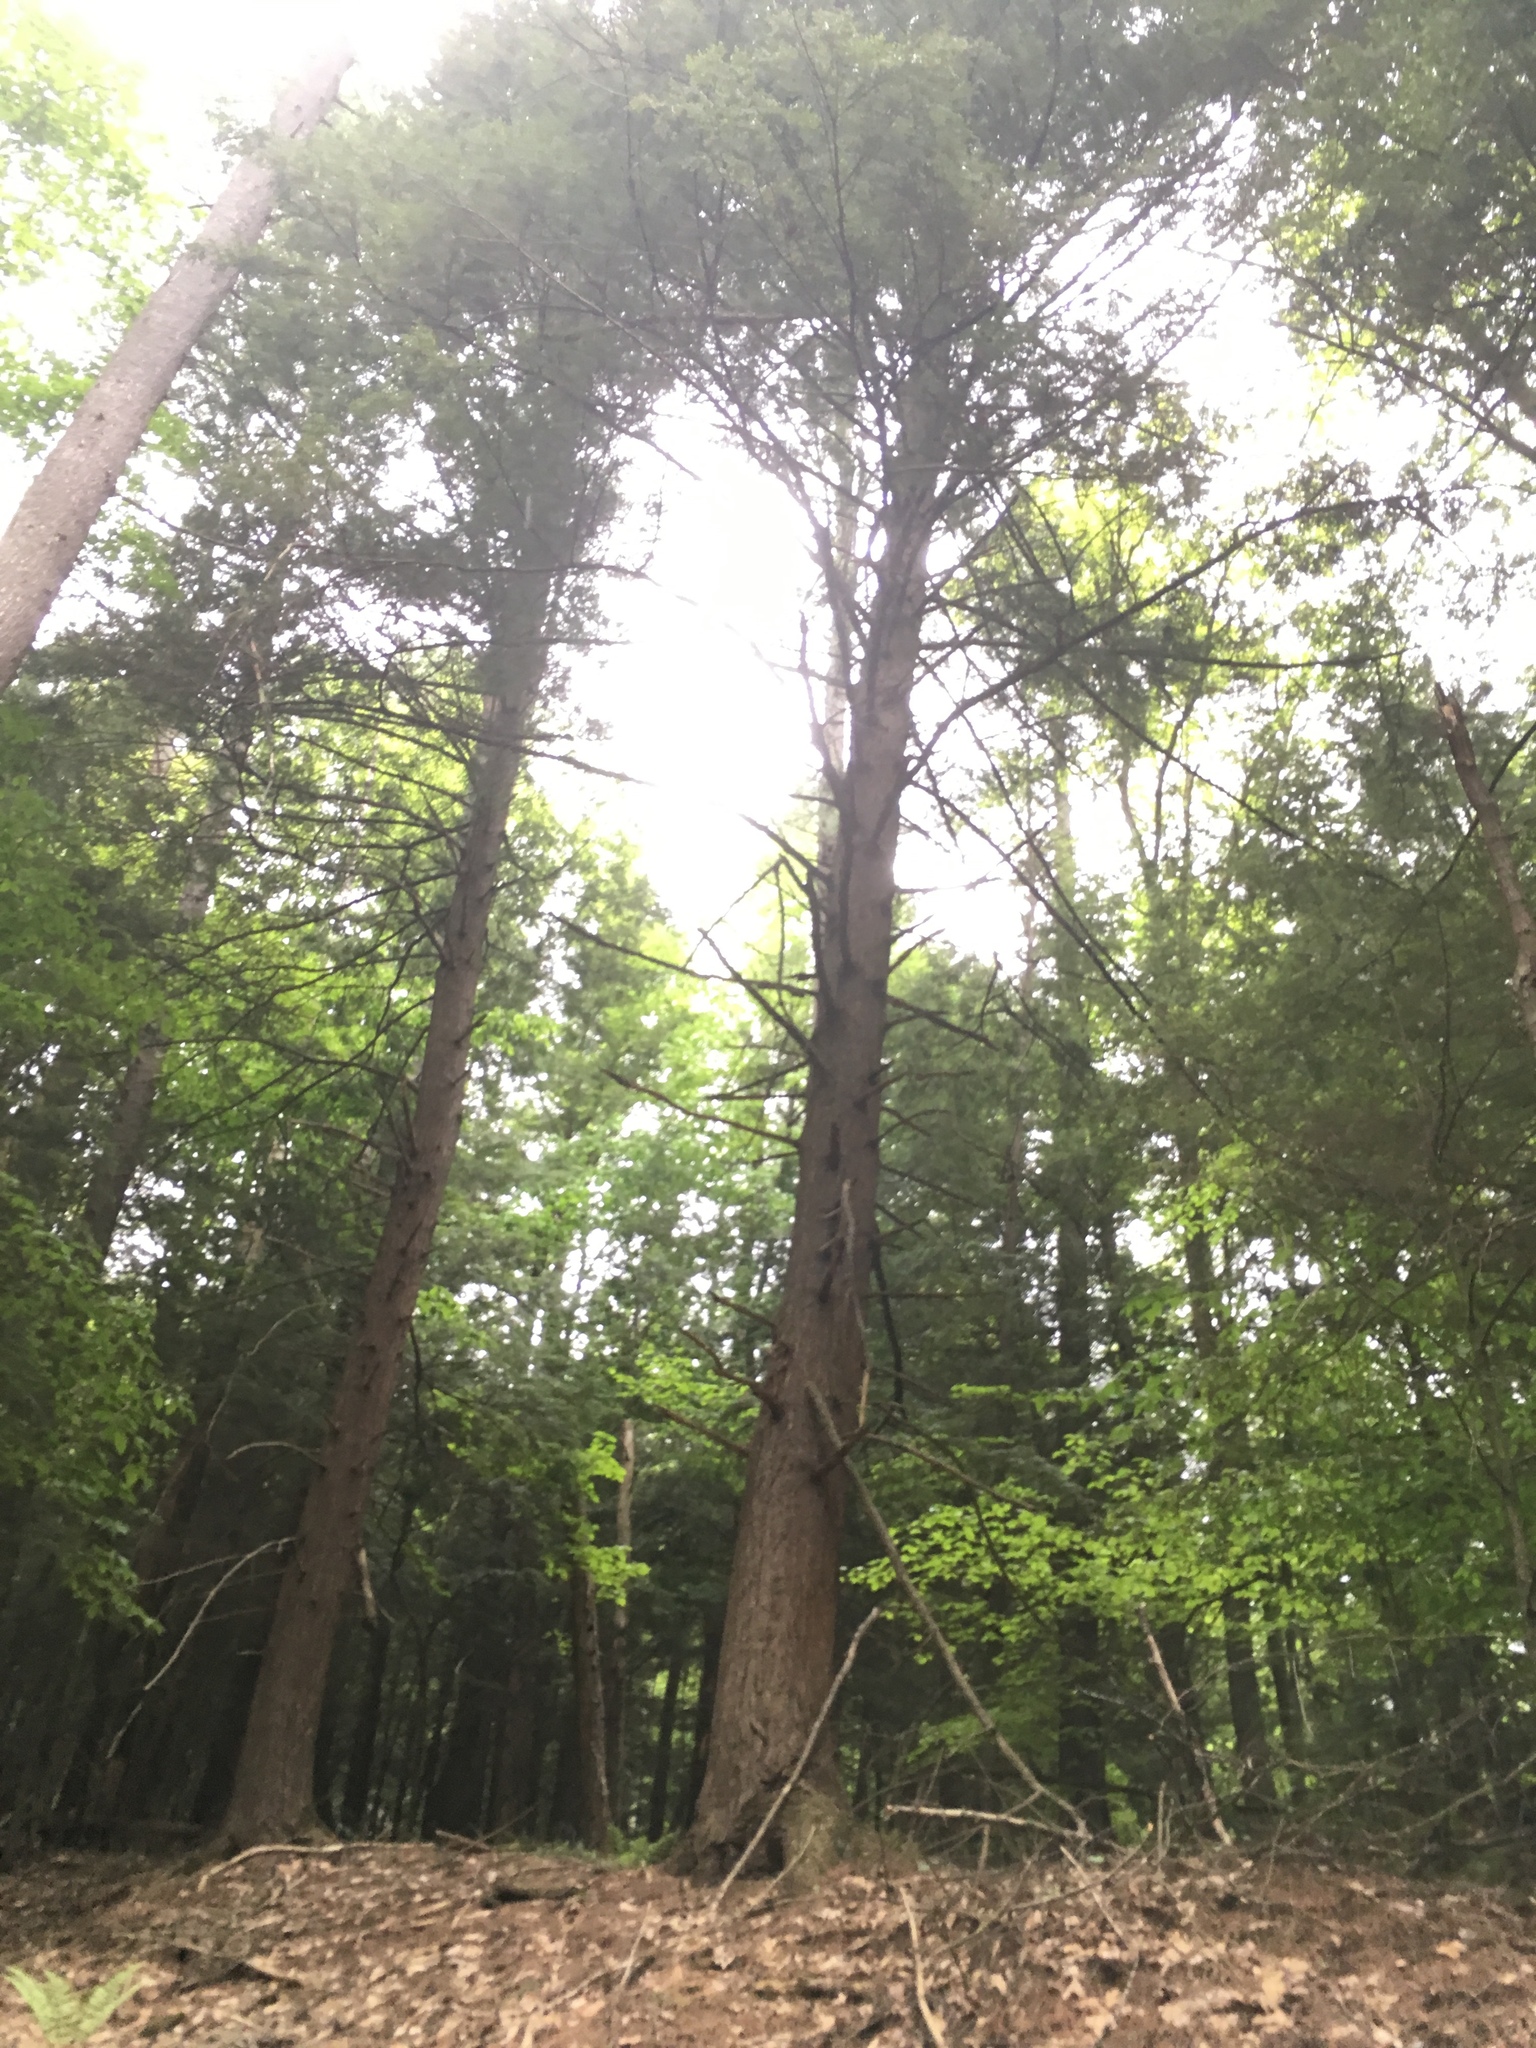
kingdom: Plantae
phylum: Tracheophyta
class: Pinopsida
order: Pinales
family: Pinaceae
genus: Tsuga
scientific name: Tsuga canadensis
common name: Eastern hemlock
